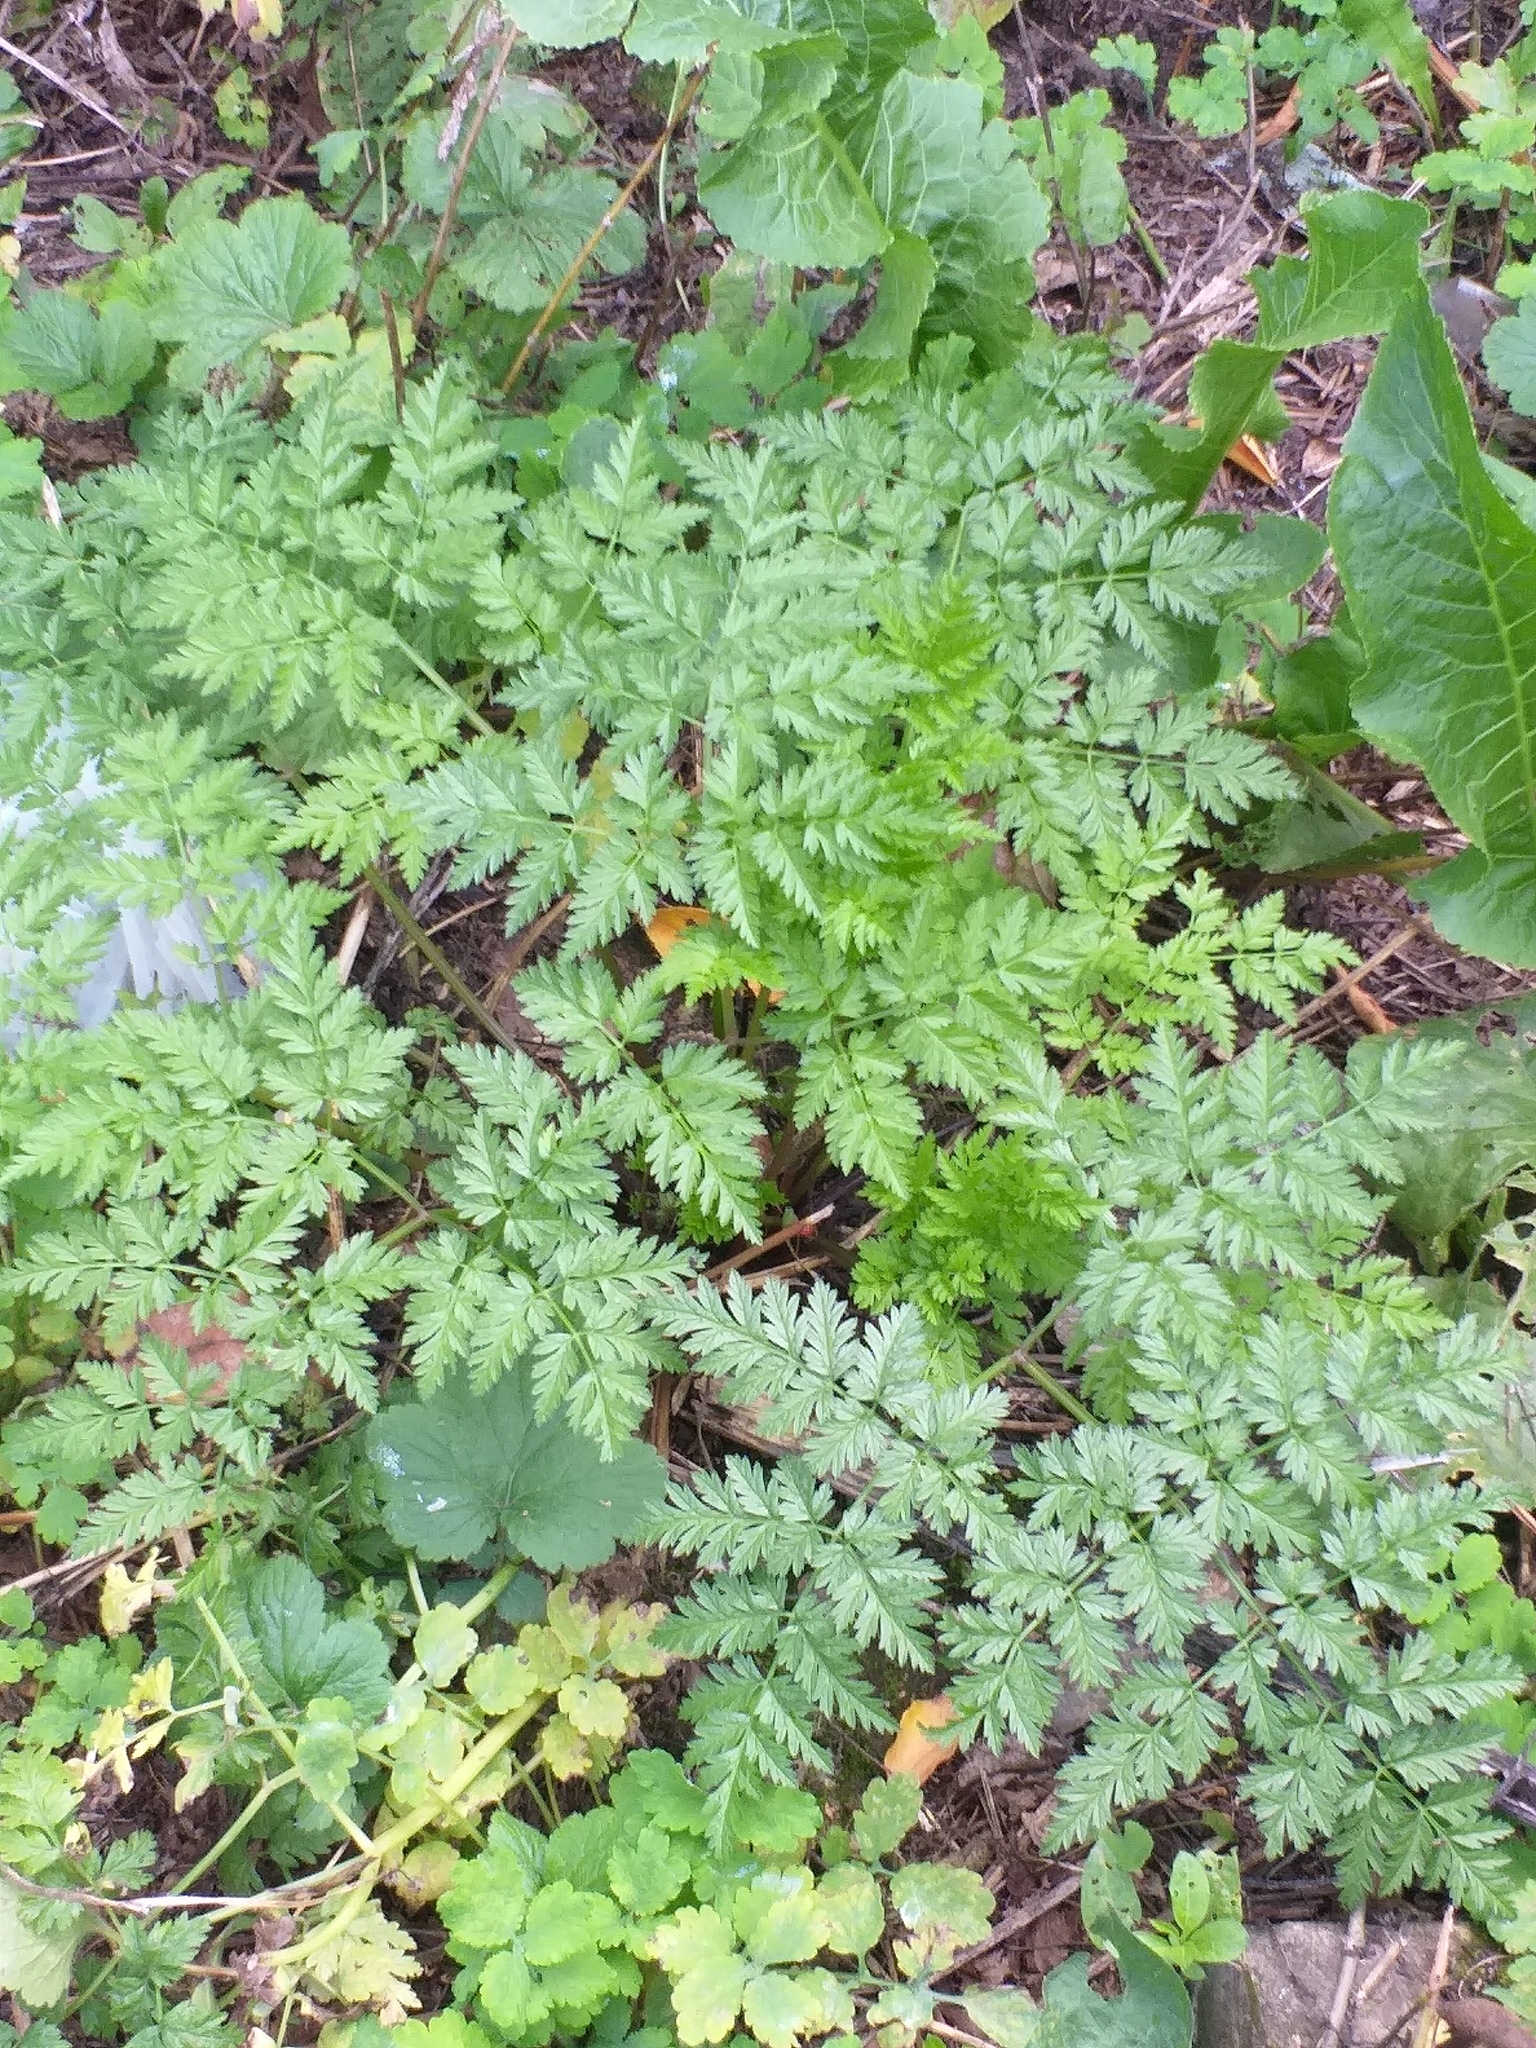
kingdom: Plantae
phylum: Tracheophyta
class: Magnoliopsida
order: Apiales
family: Apiaceae
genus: Anthriscus
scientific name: Anthriscus sylvestris
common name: Cow parsley
